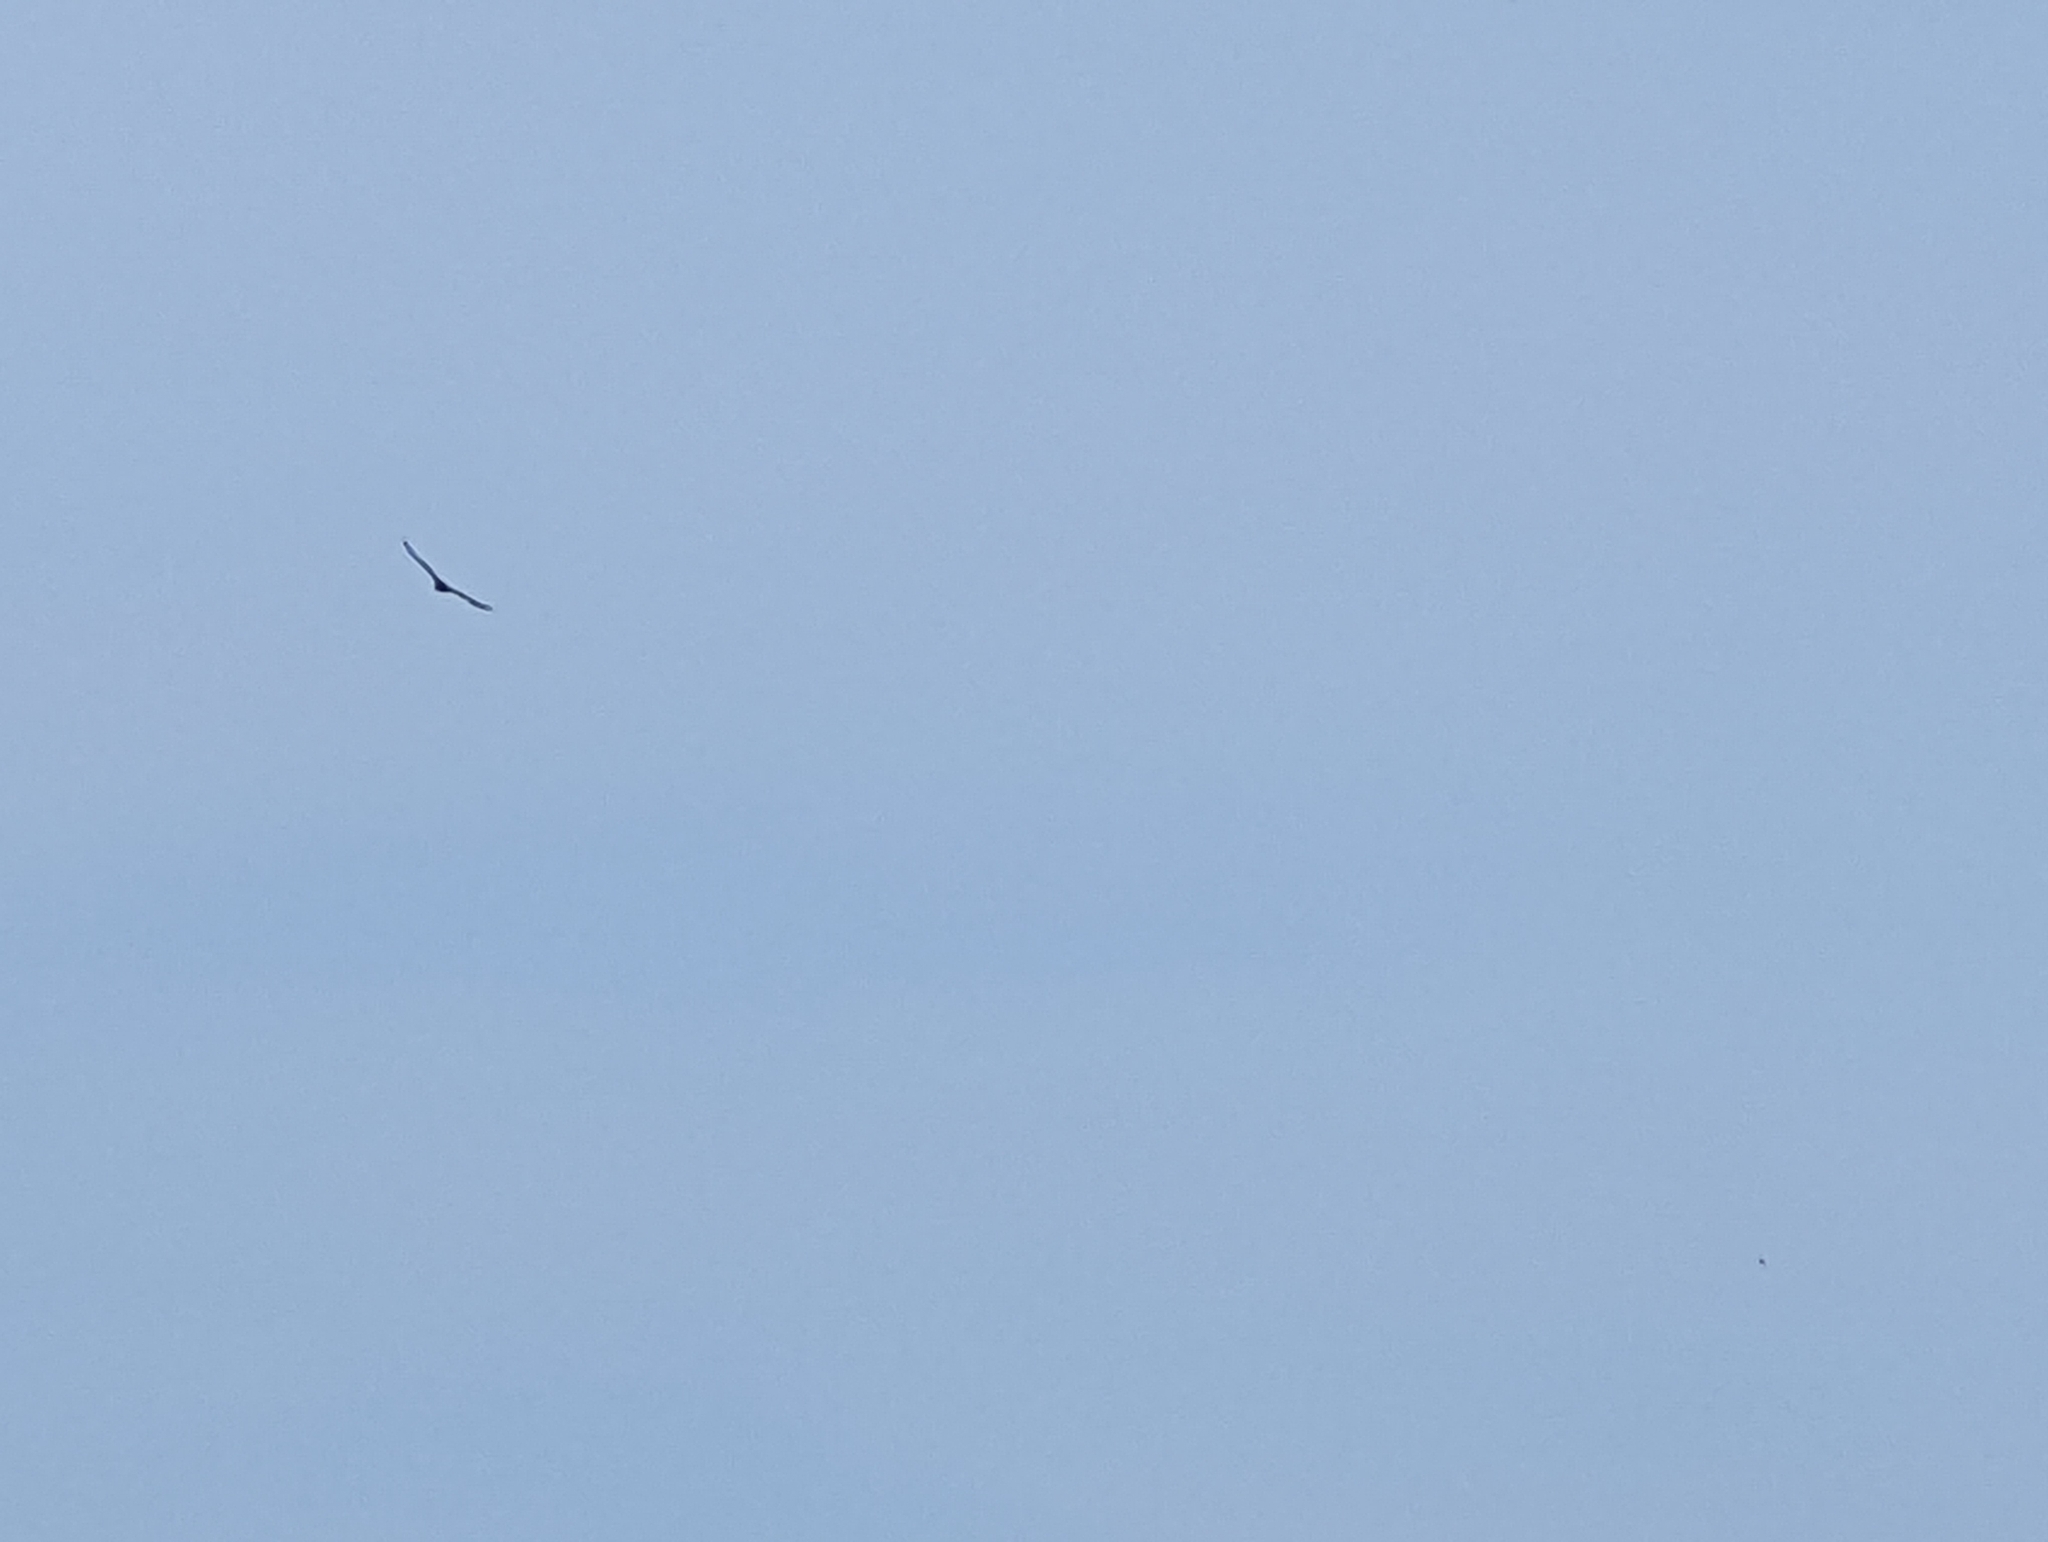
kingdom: Animalia
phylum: Chordata
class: Aves
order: Accipitriformes
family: Cathartidae
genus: Cathartes
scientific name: Cathartes aura
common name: Turkey vulture
